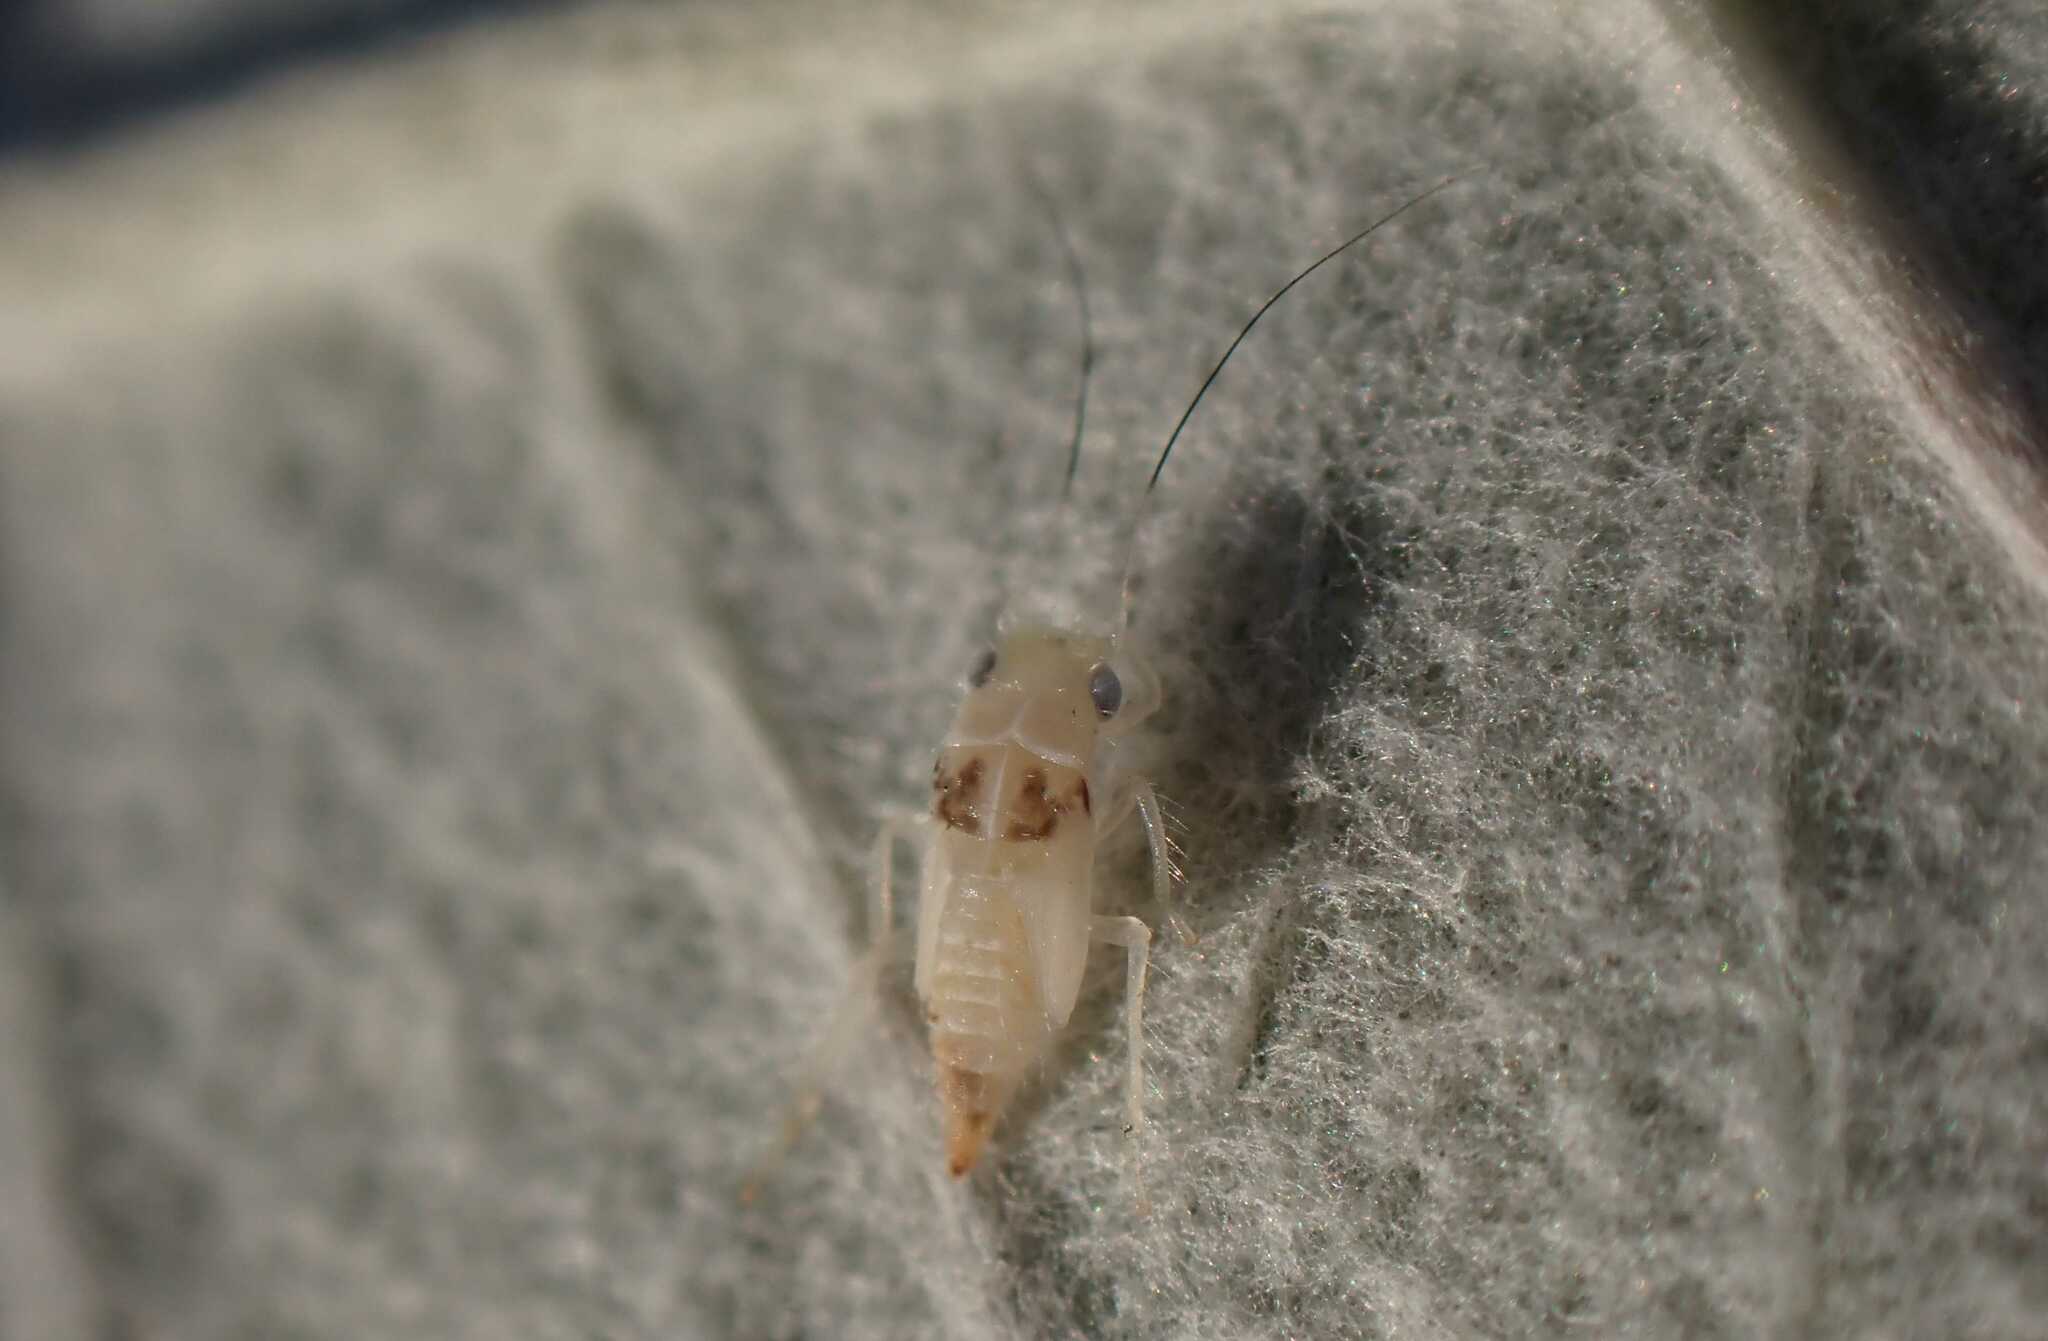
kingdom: Animalia
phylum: Arthropoda
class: Insecta
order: Hemiptera
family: Cicadellidae
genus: Zygina
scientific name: Zygina nivea
